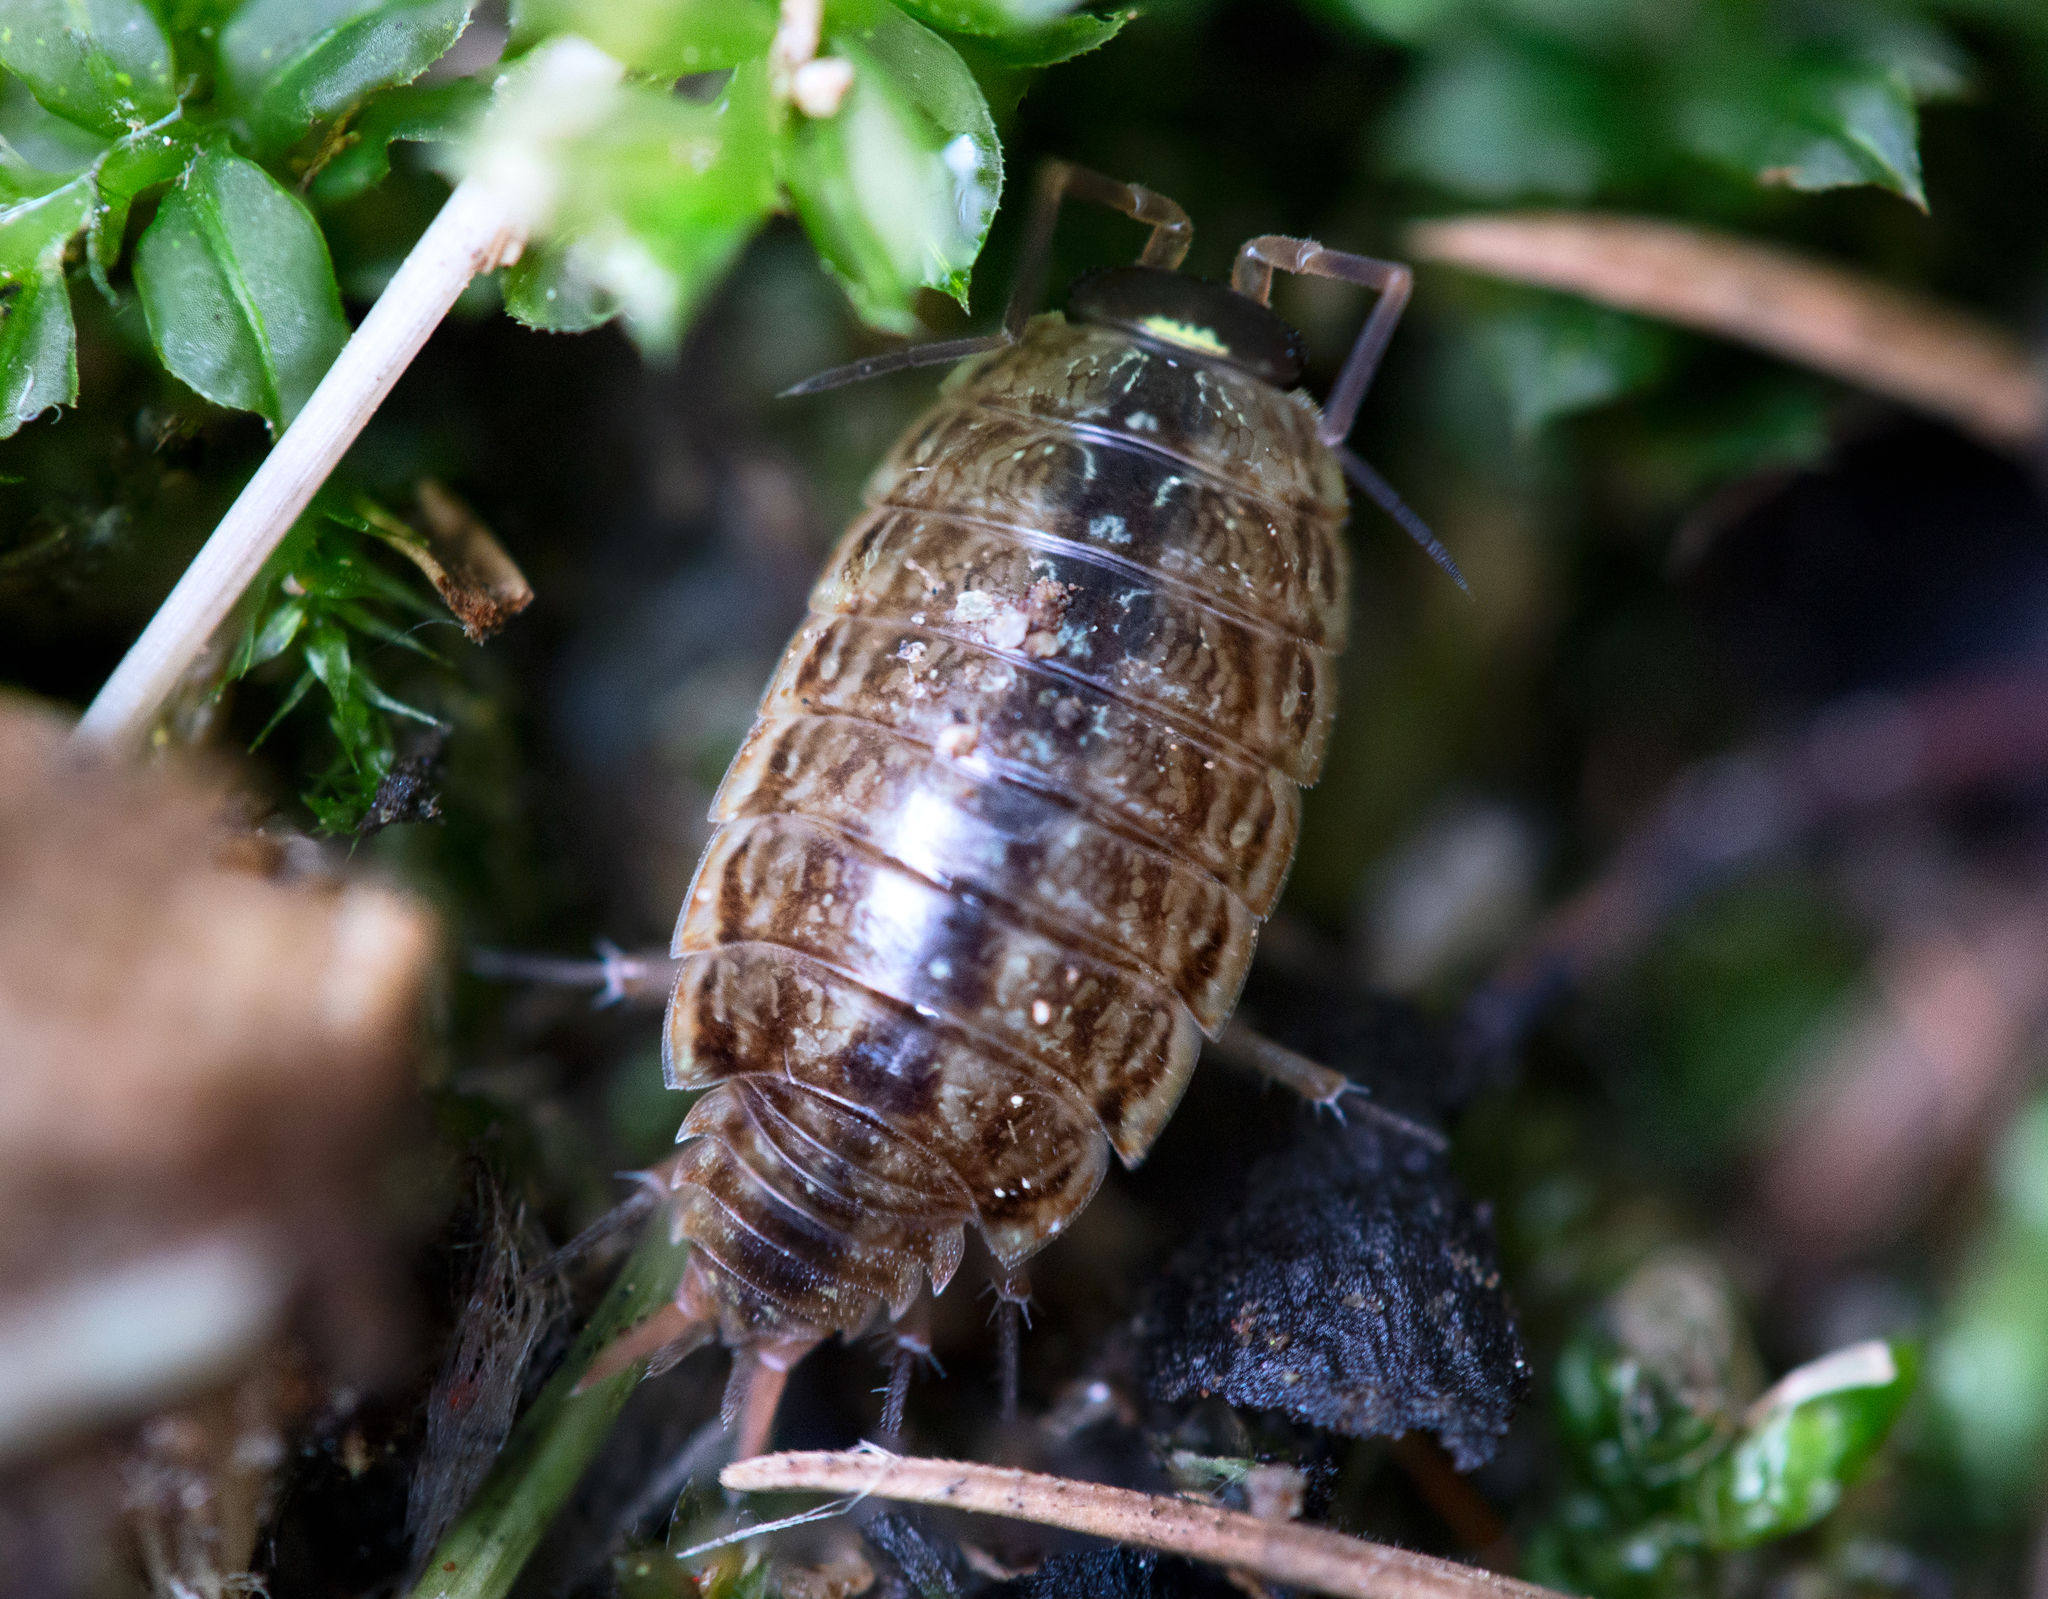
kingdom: Animalia
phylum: Arthropoda
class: Malacostraca
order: Isopoda
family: Philosciidae
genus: Philoscia
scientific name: Philoscia muscorum
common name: Common striped woodlouse
